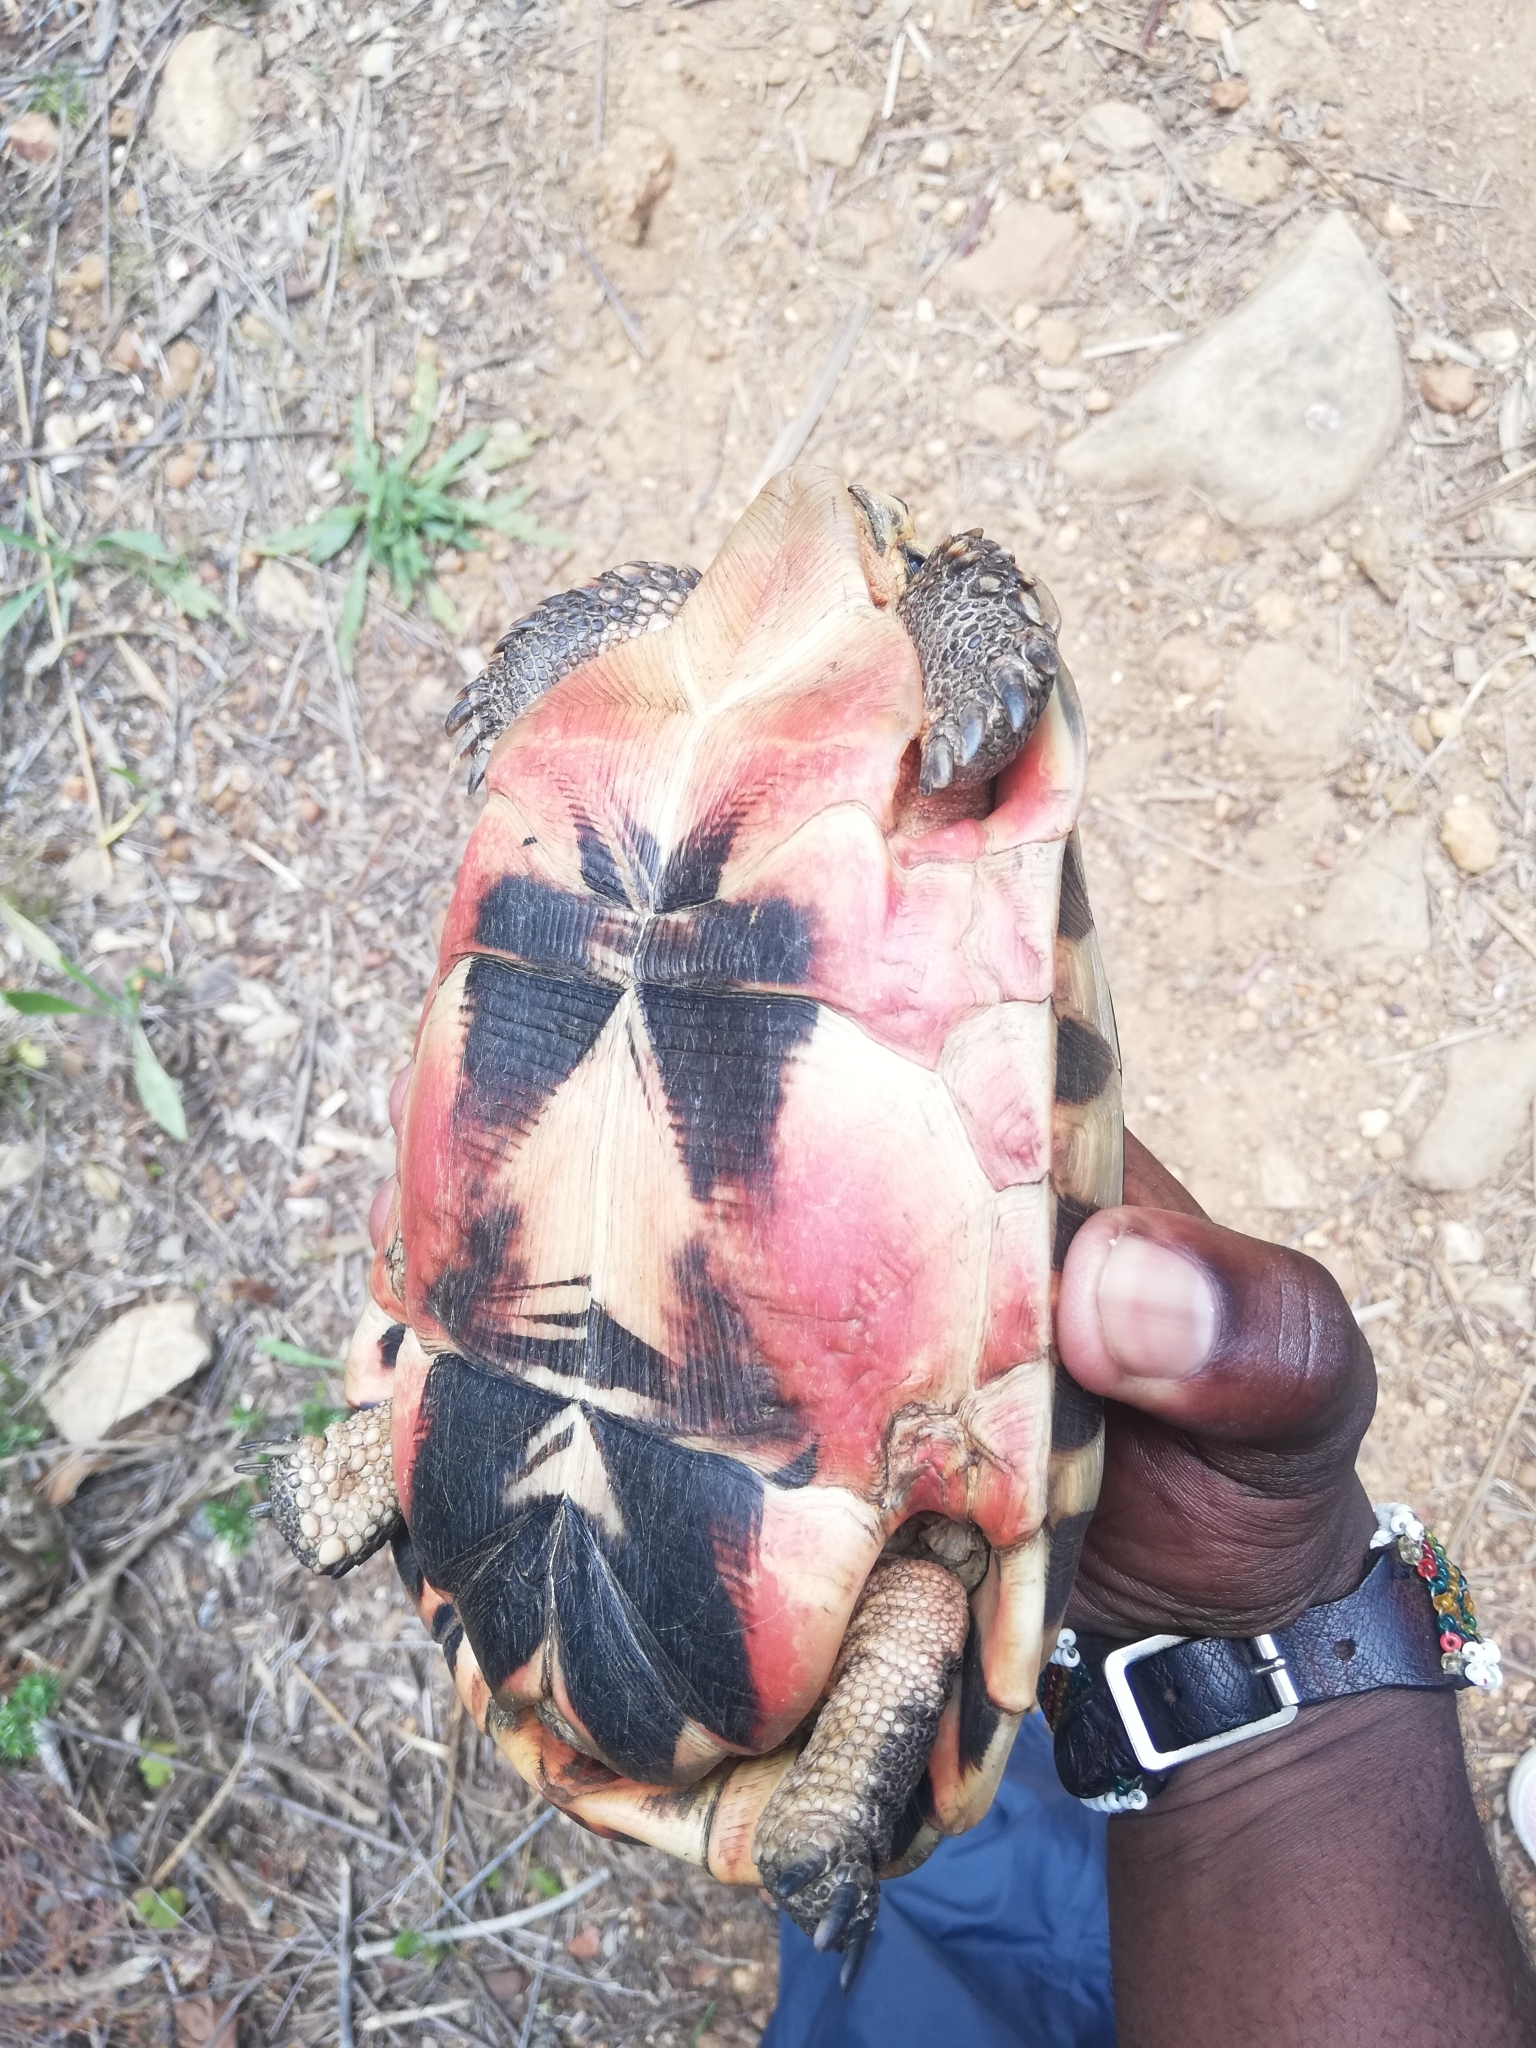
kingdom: Animalia
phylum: Chordata
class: Testudines
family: Testudinidae
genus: Chersina
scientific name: Chersina angulata
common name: South african bowsprit tortoise
